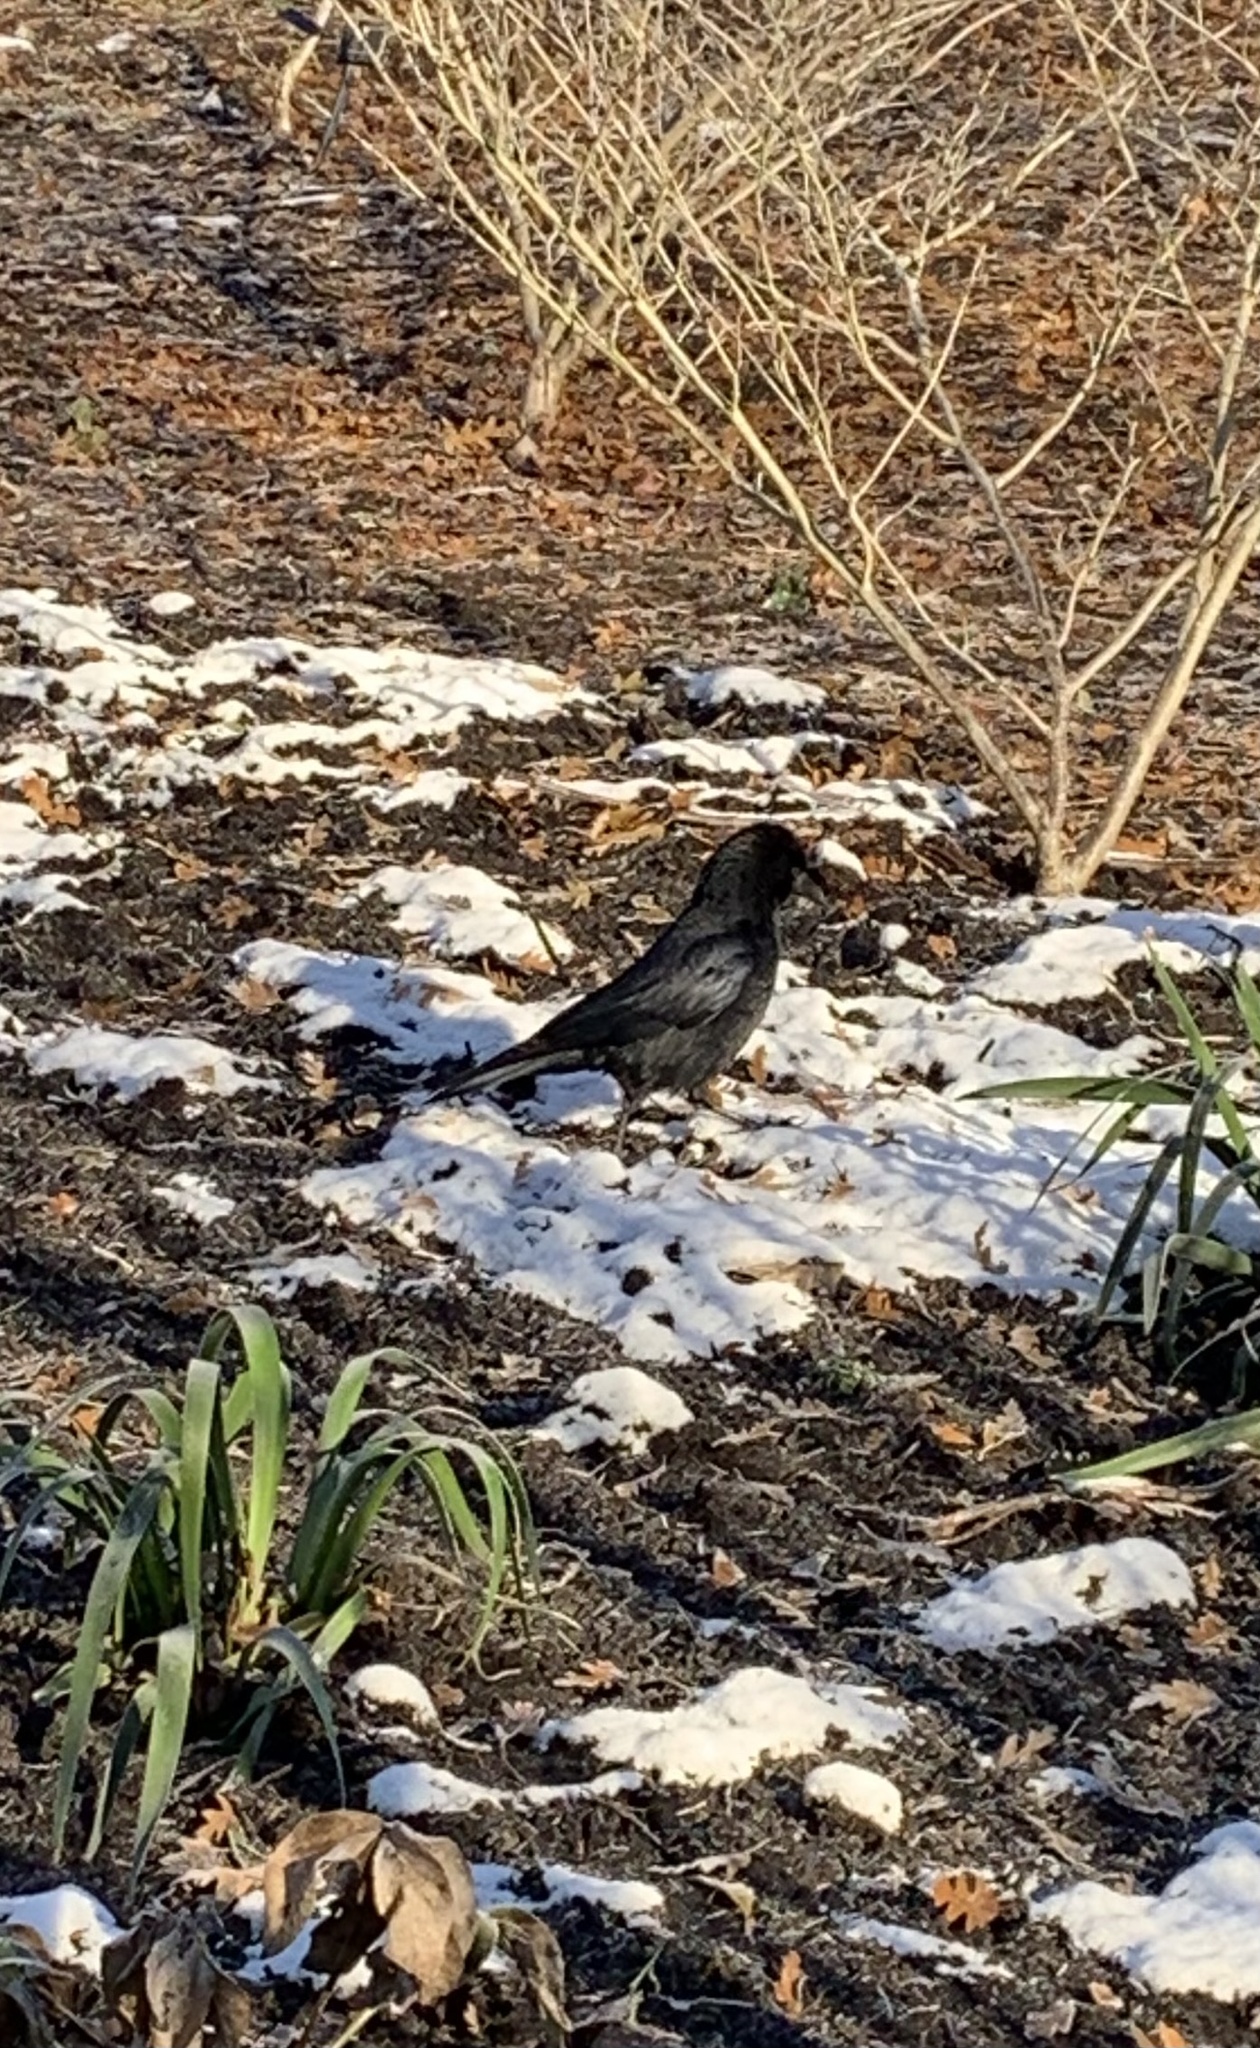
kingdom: Animalia
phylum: Chordata
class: Aves
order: Passeriformes
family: Corvidae
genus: Corvus
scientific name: Corvus corone
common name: Carrion crow
